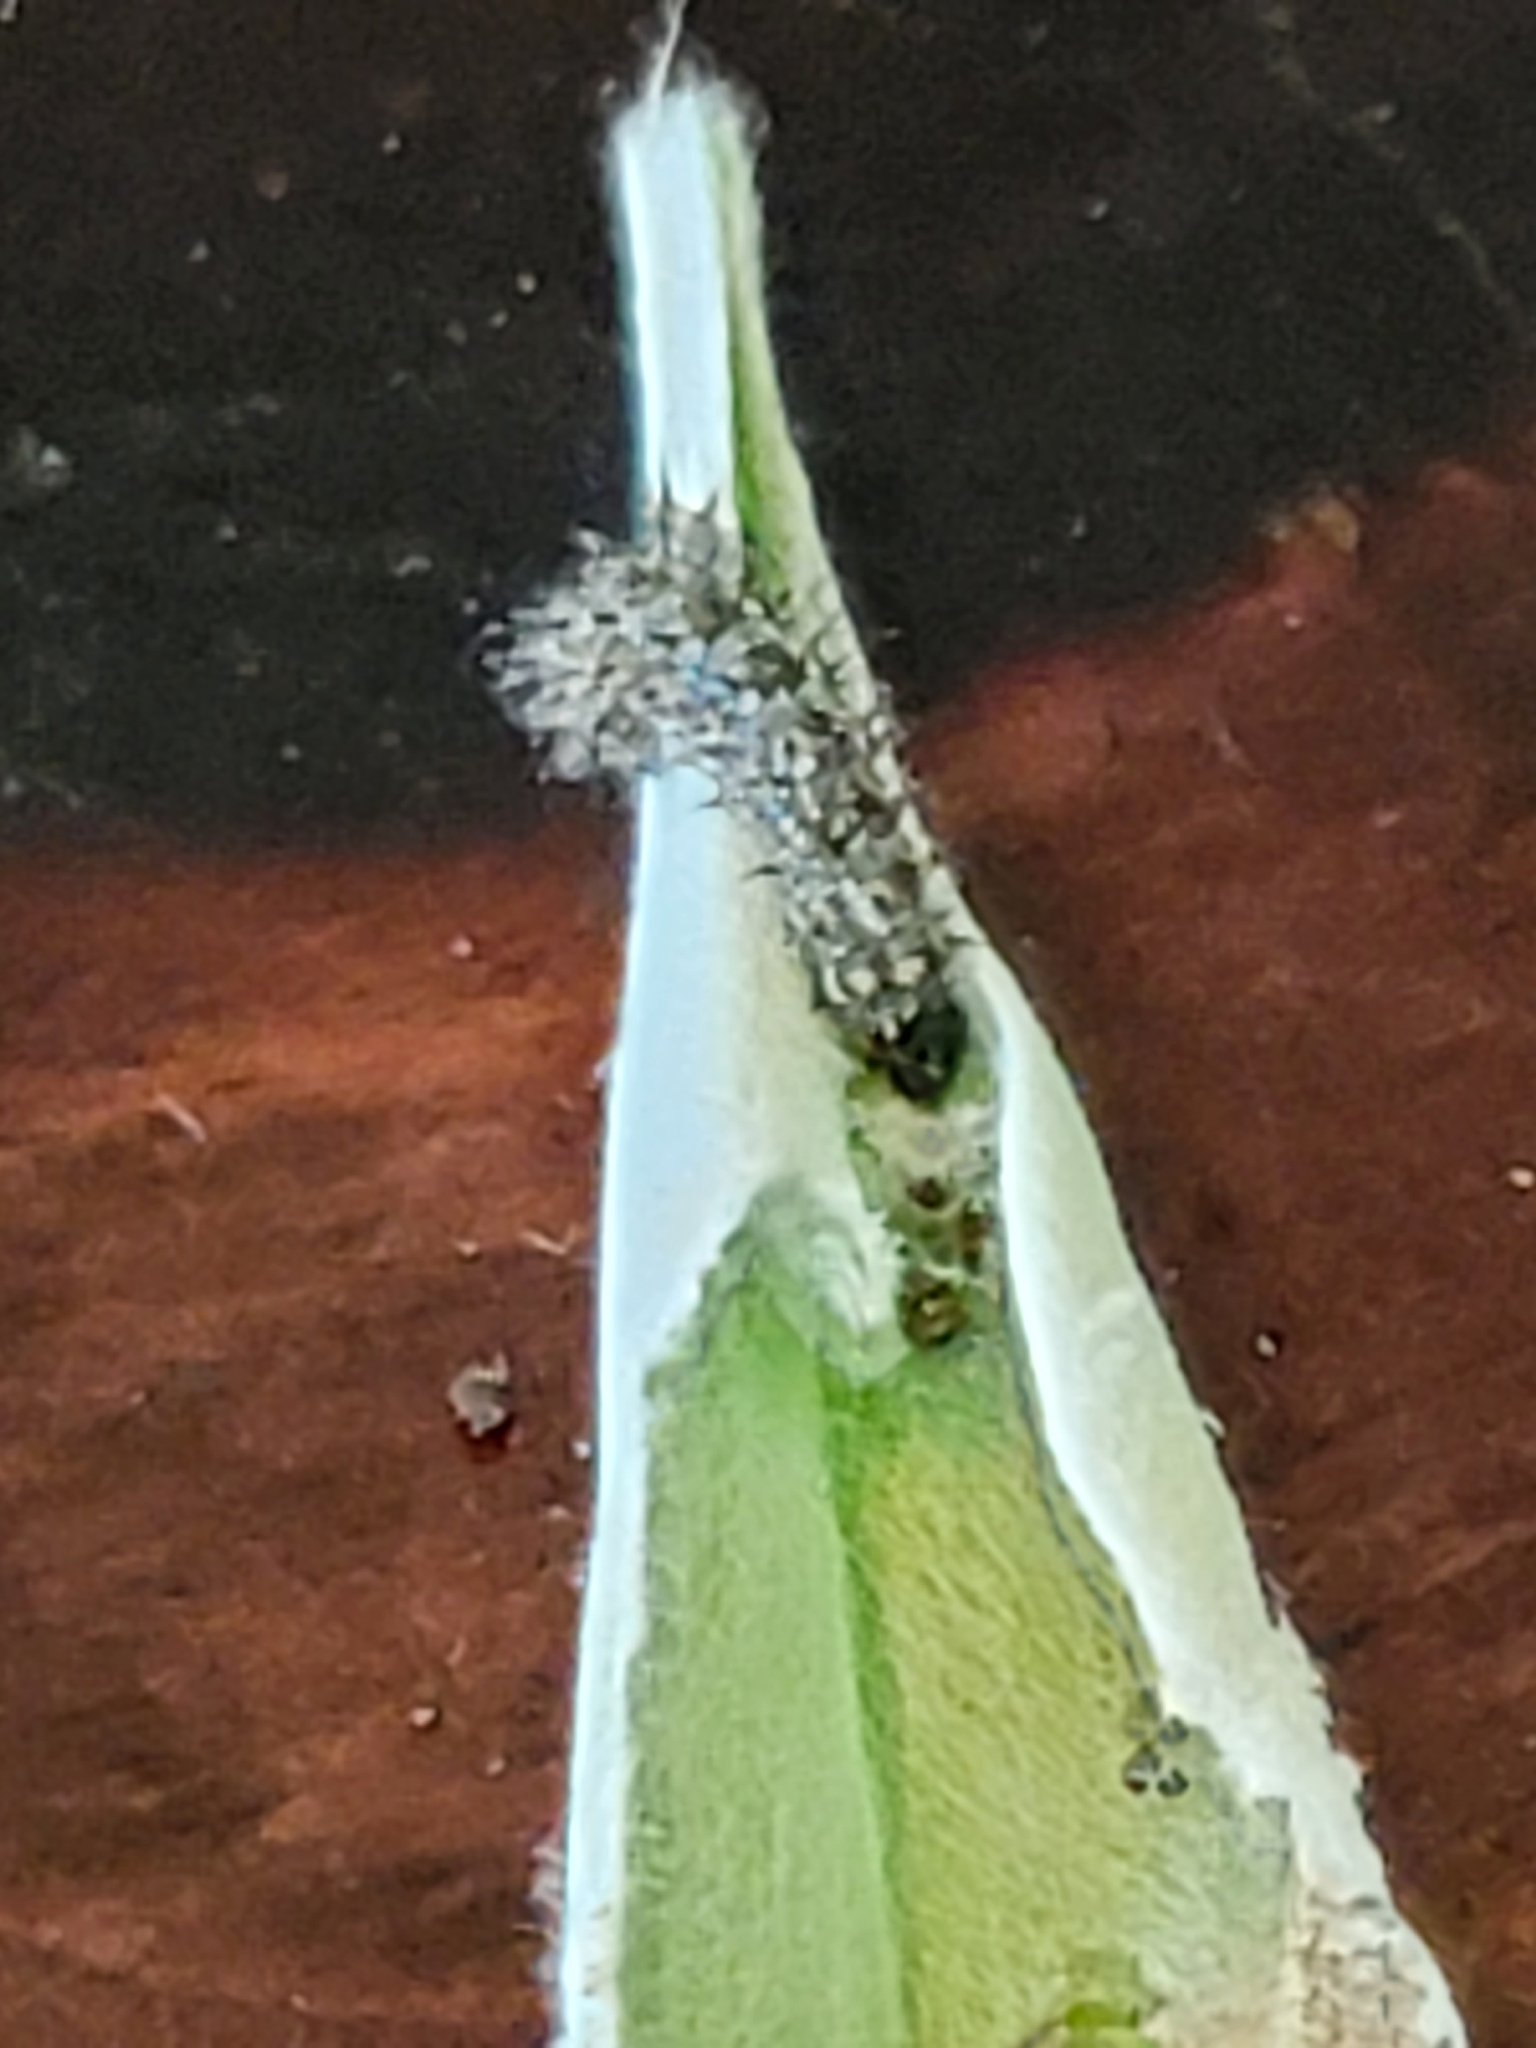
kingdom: Animalia
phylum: Arthropoda
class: Insecta
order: Lepidoptera
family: Nymphalidae
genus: Vanessa
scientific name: Vanessa virginiensis
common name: American lady
